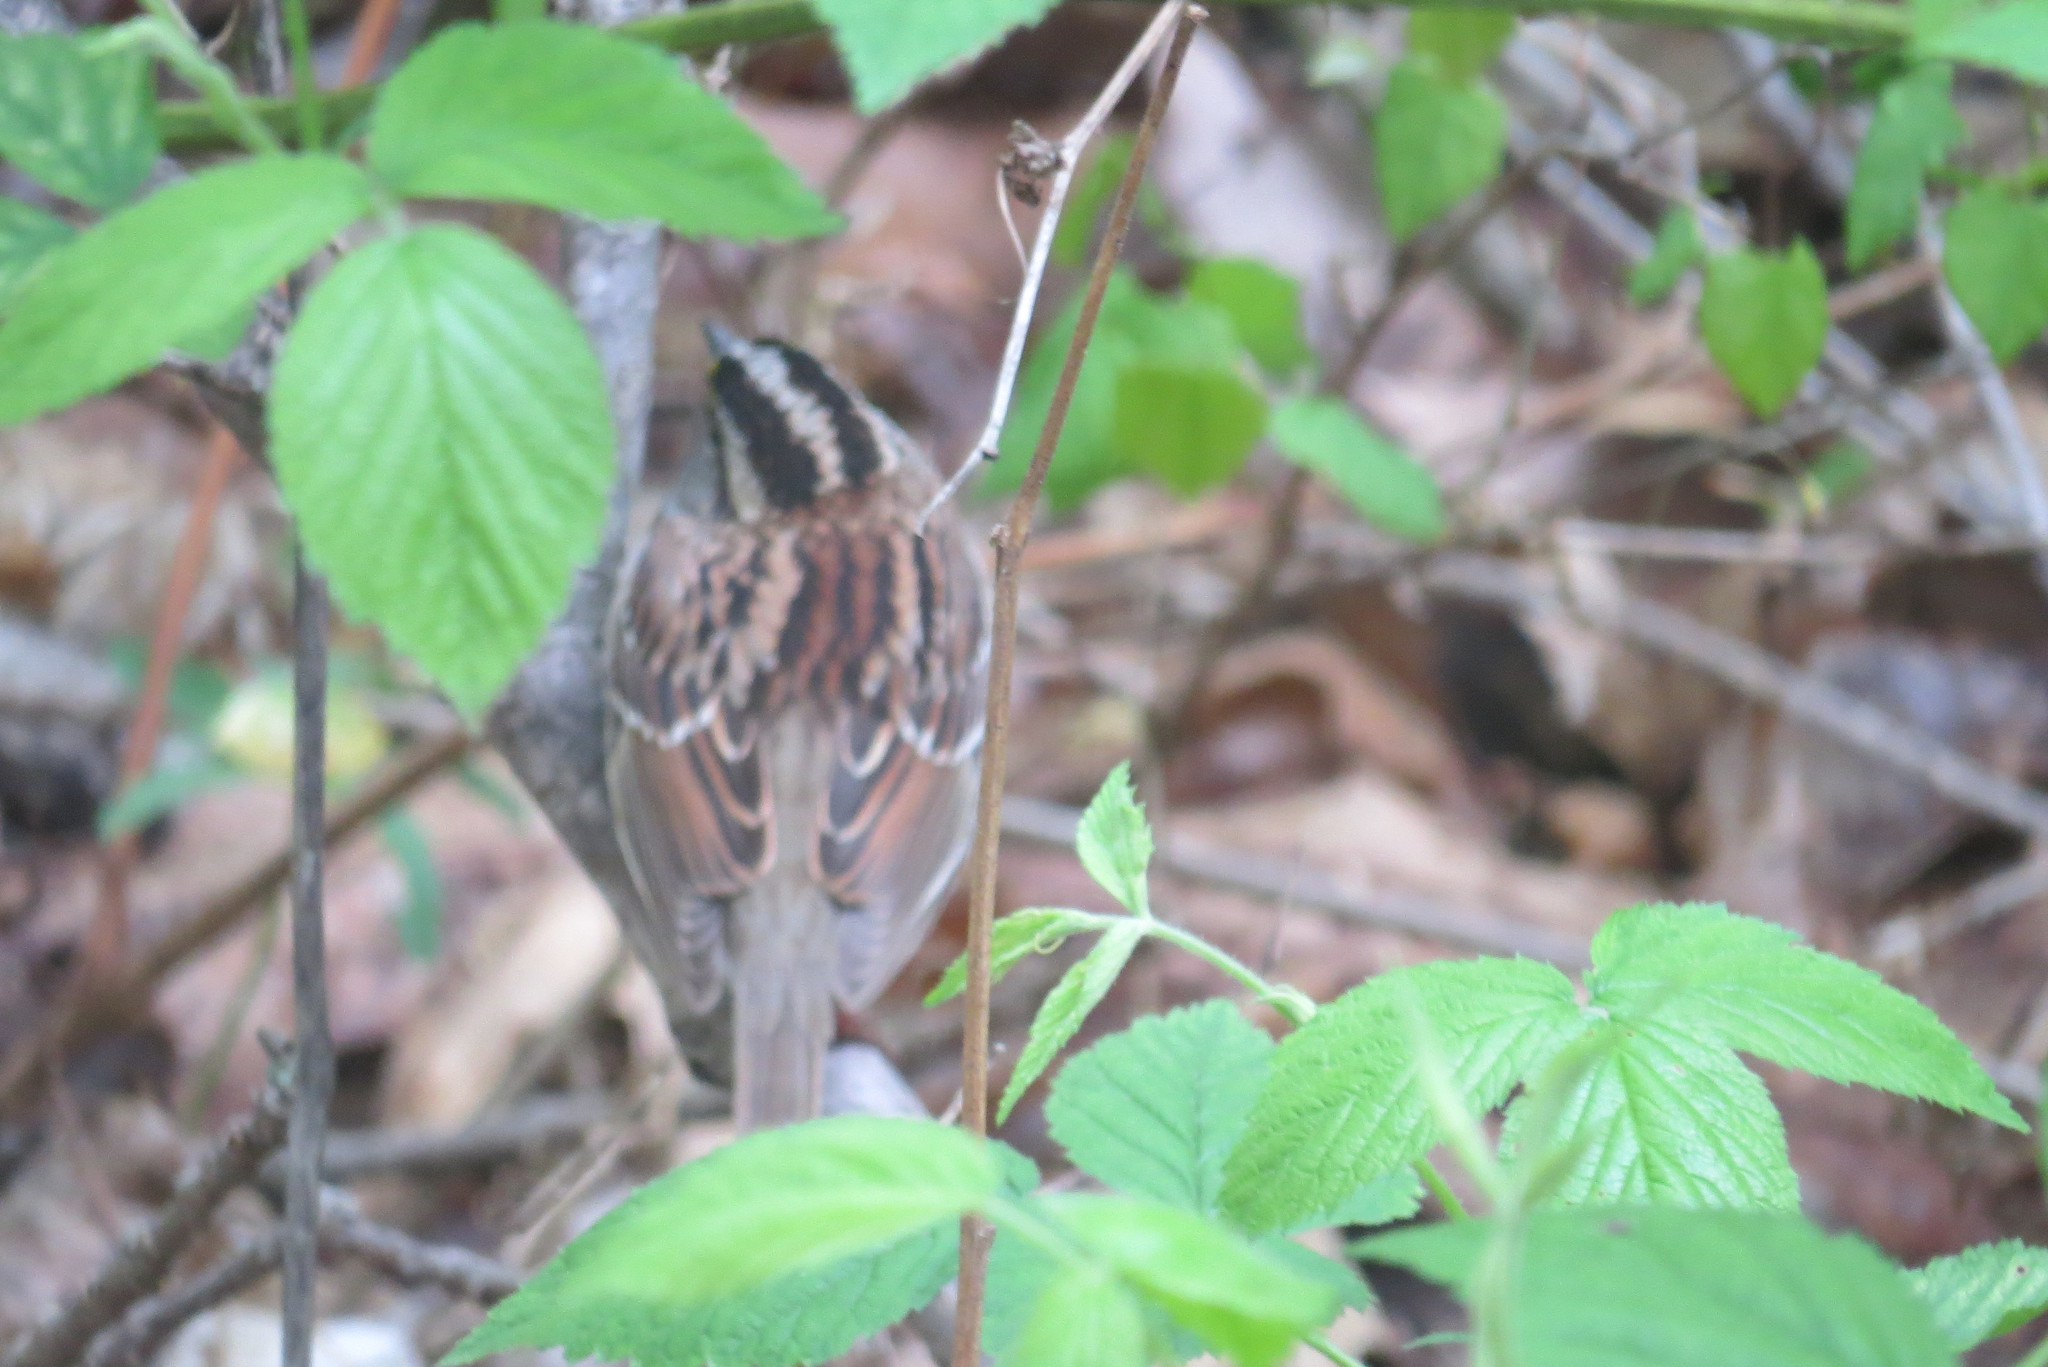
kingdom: Animalia
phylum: Chordata
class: Aves
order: Passeriformes
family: Passerellidae
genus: Zonotrichia
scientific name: Zonotrichia albicollis
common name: White-throated sparrow
